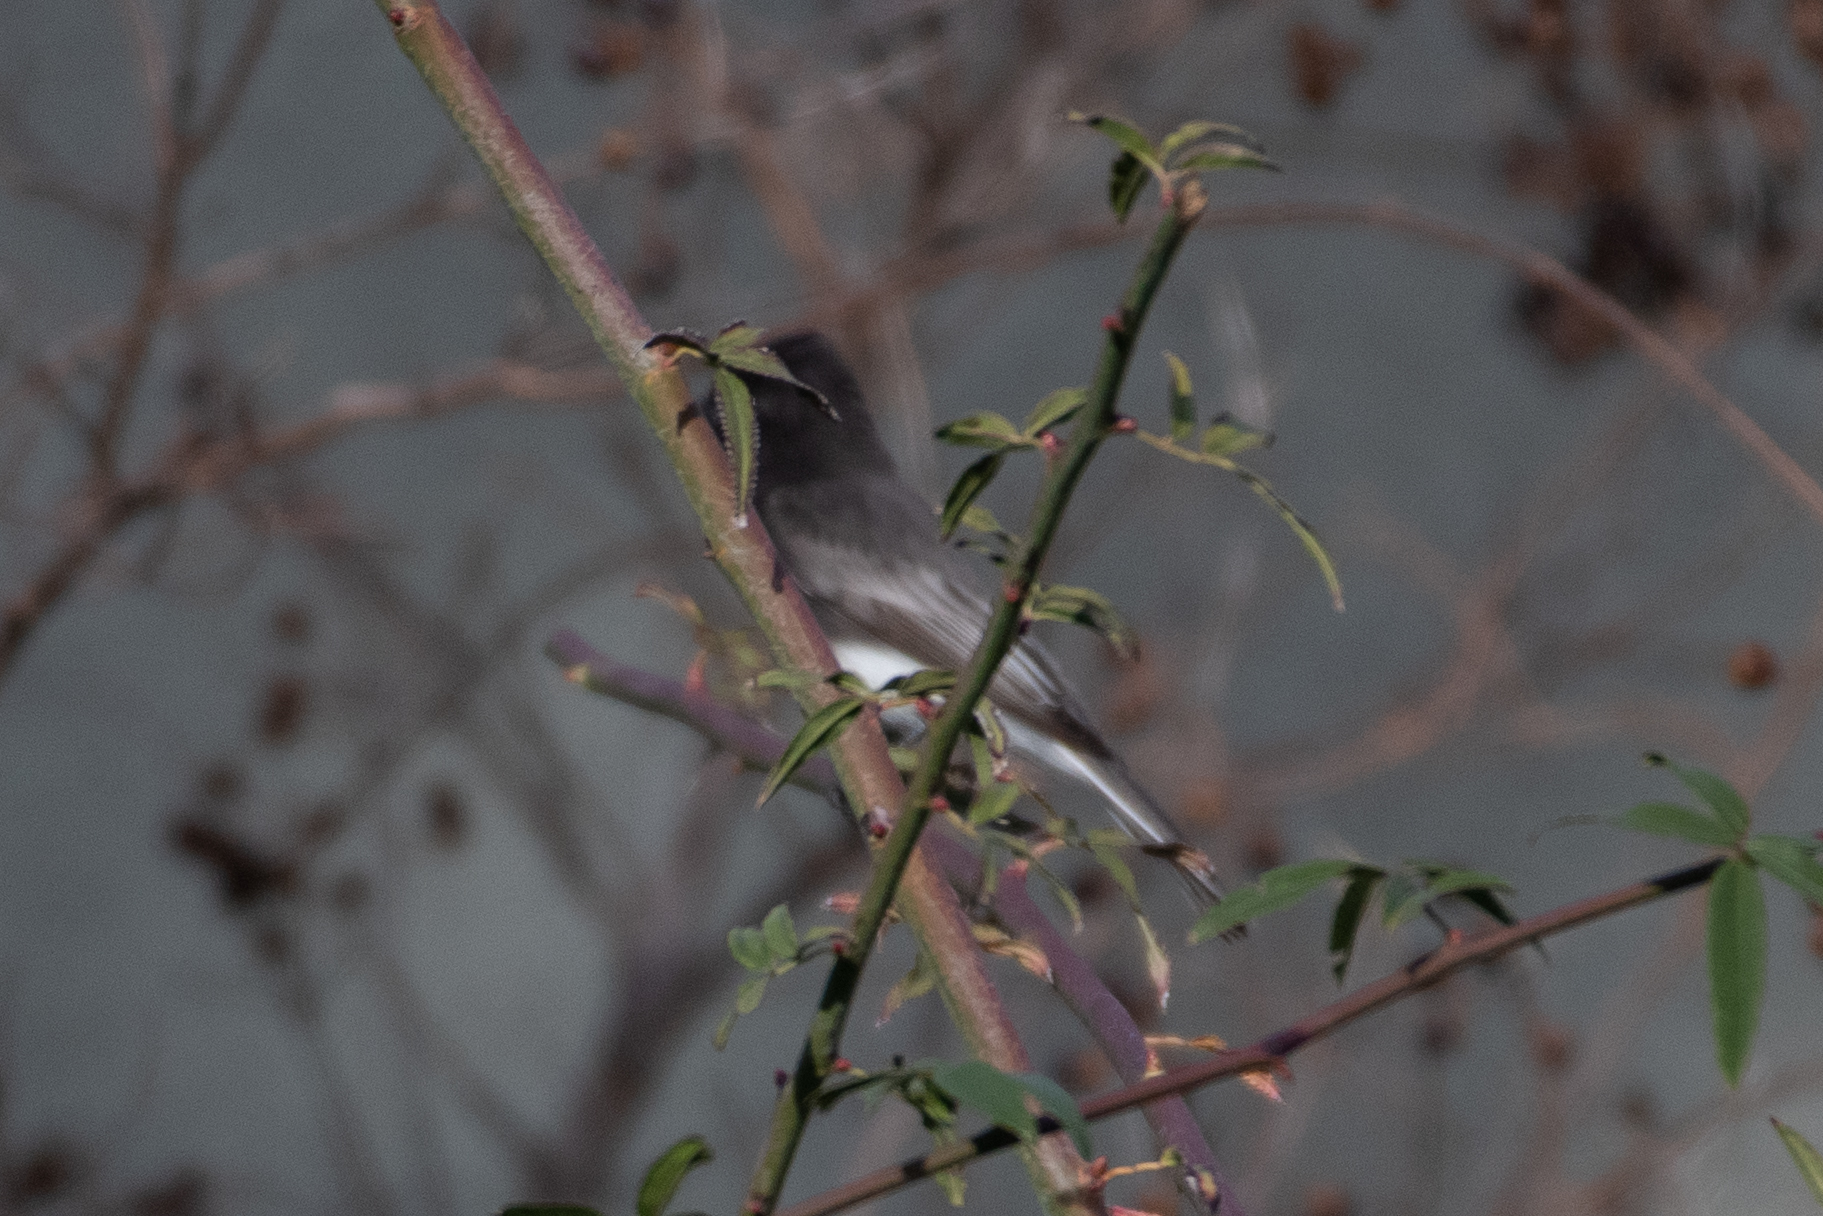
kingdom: Animalia
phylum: Chordata
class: Aves
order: Passeriformes
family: Tyrannidae
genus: Sayornis
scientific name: Sayornis nigricans
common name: Black phoebe
